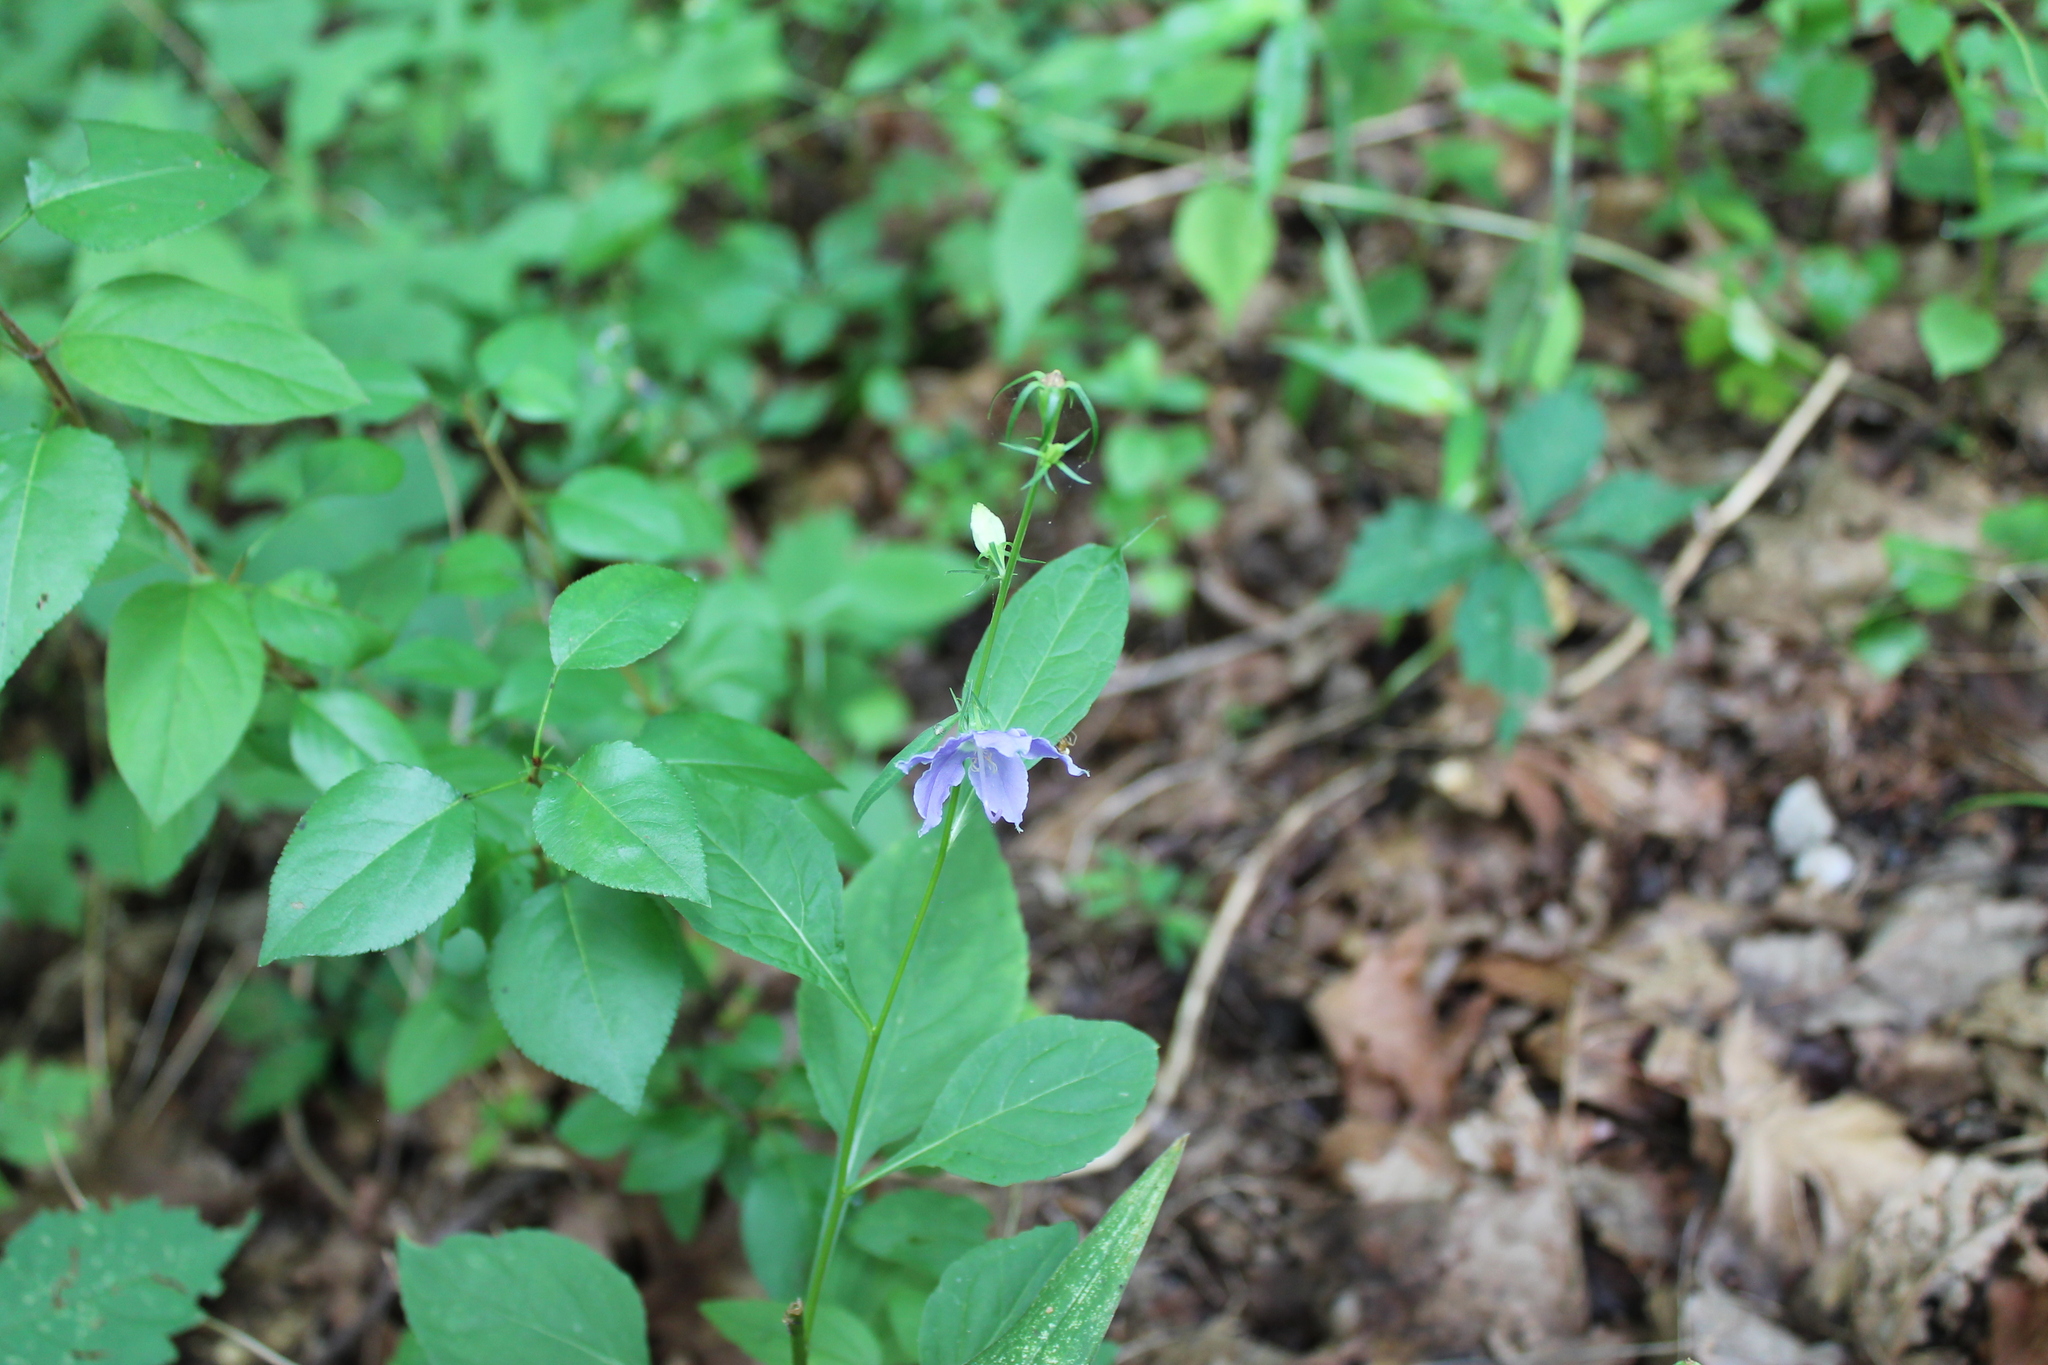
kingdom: Plantae
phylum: Tracheophyta
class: Magnoliopsida
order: Asterales
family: Campanulaceae
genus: Campanulastrum
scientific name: Campanulastrum americanum
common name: American bellflower
